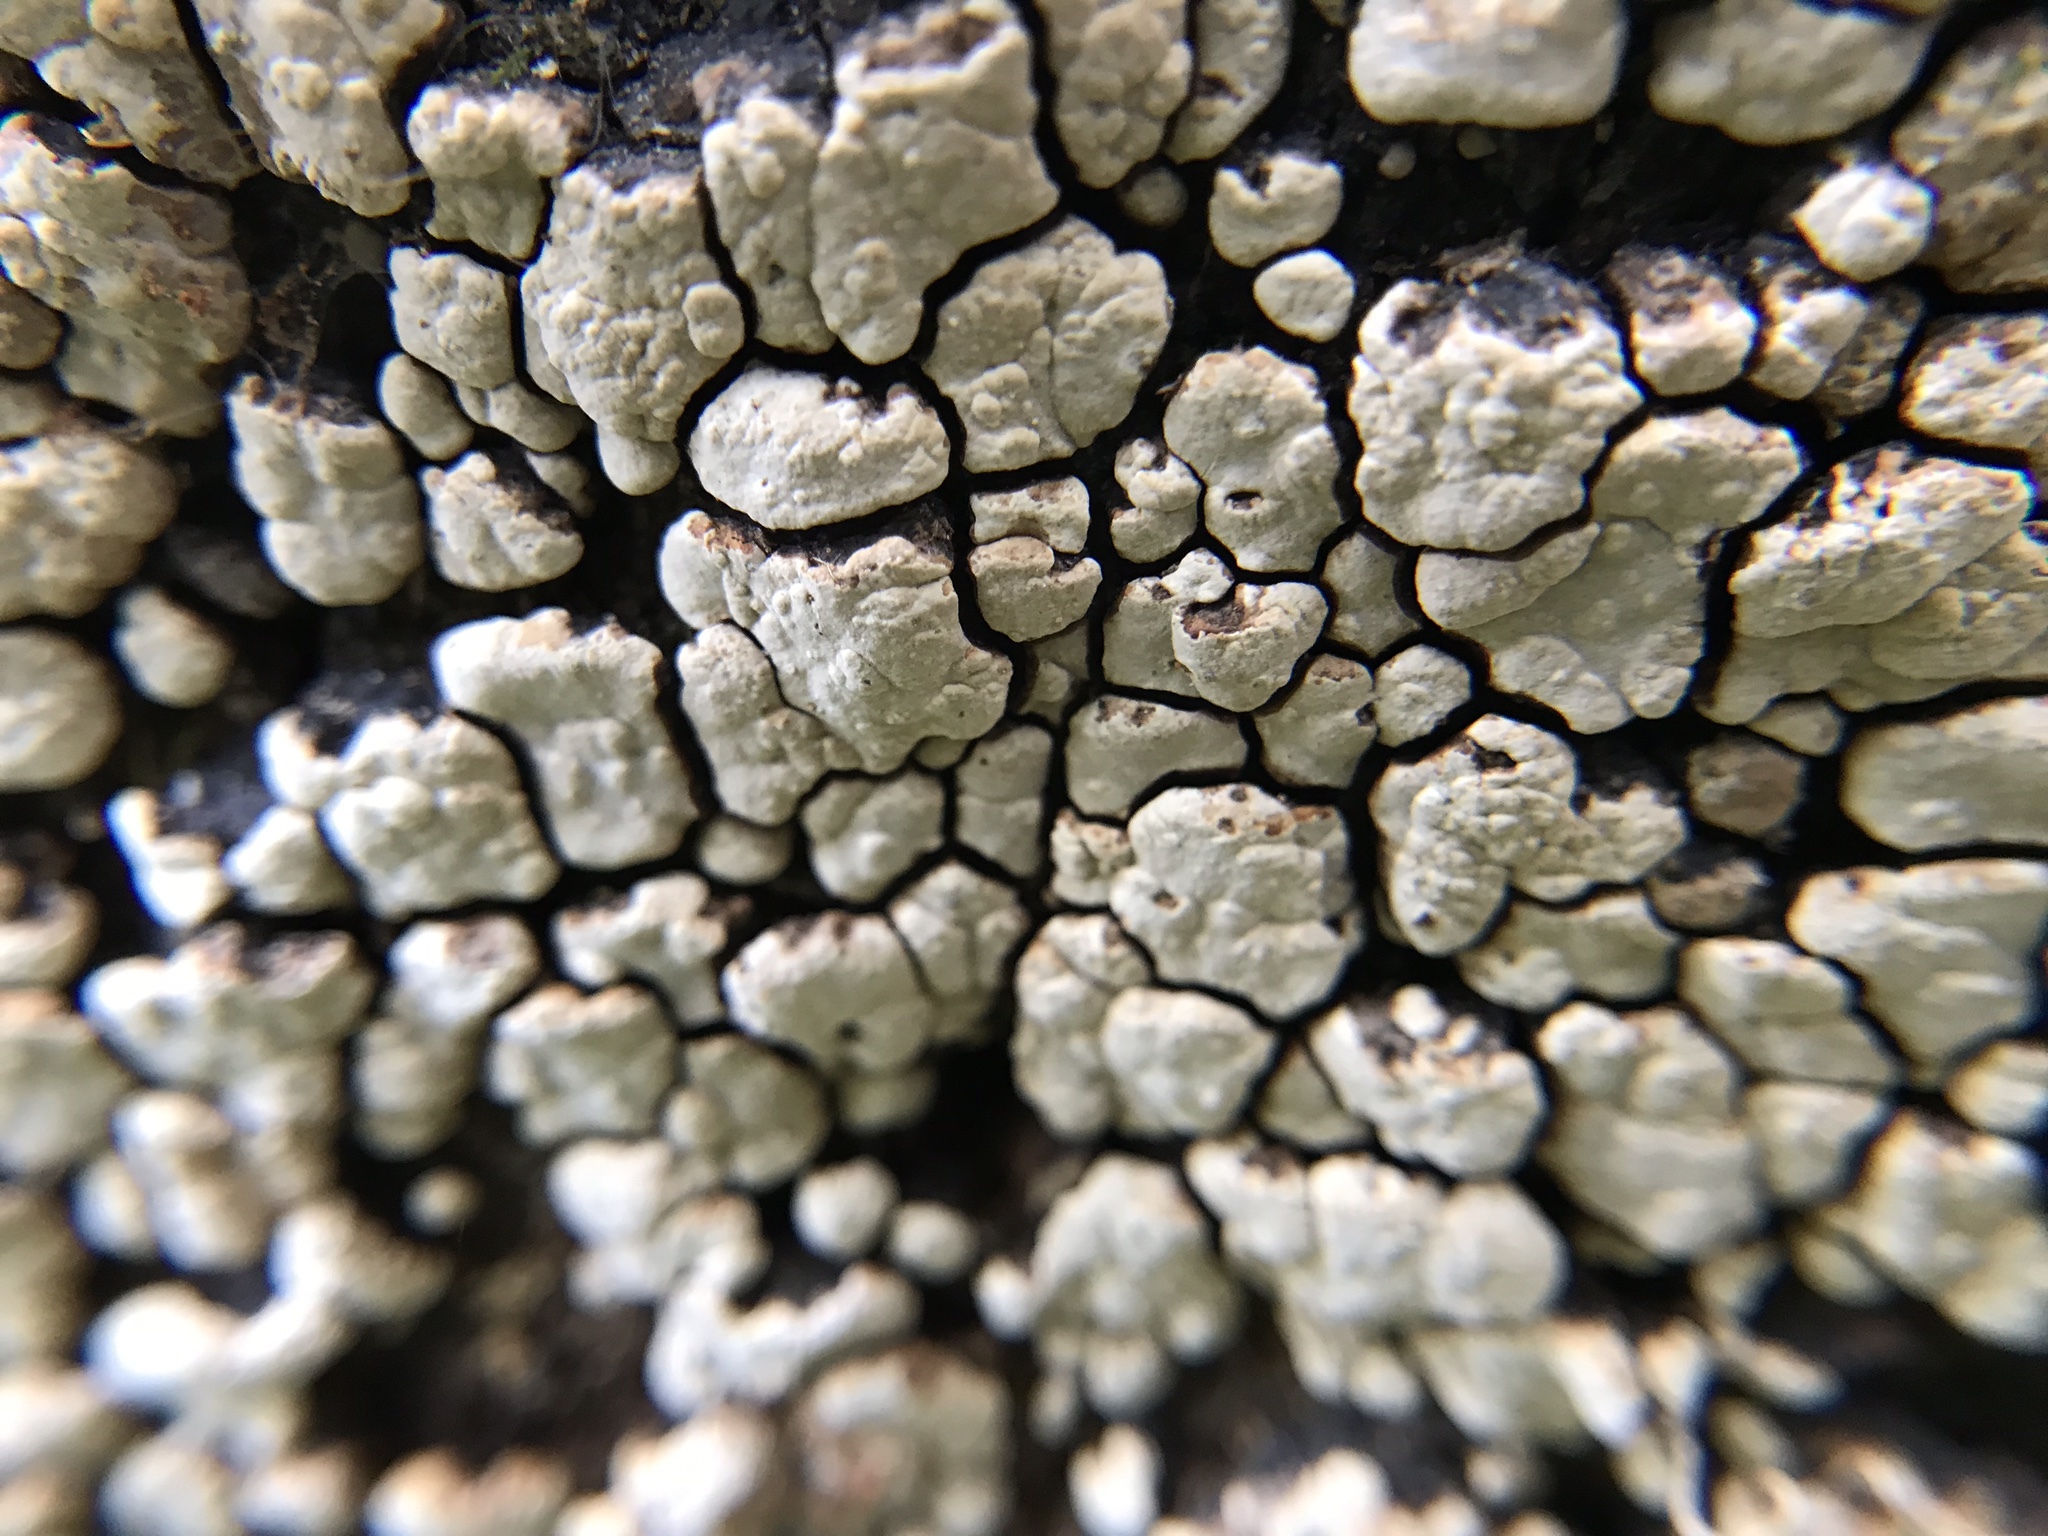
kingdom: Fungi
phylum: Basidiomycota
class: Agaricomycetes
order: Russulales
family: Stereaceae
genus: Xylobolus
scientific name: Xylobolus frustulatus
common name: Ceramic parchment
